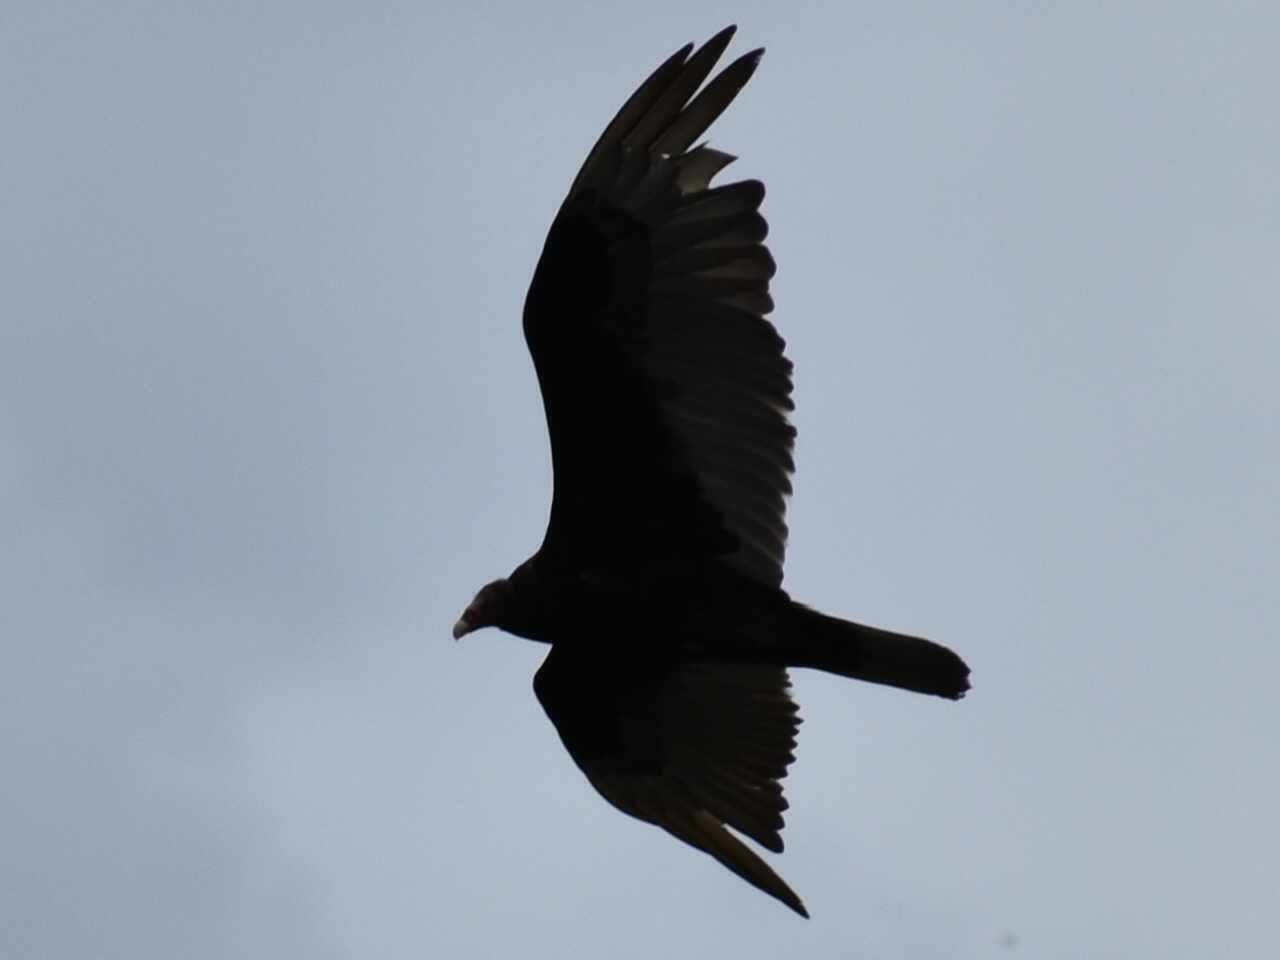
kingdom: Animalia
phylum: Chordata
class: Aves
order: Accipitriformes
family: Cathartidae
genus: Cathartes
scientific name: Cathartes aura
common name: Turkey vulture
